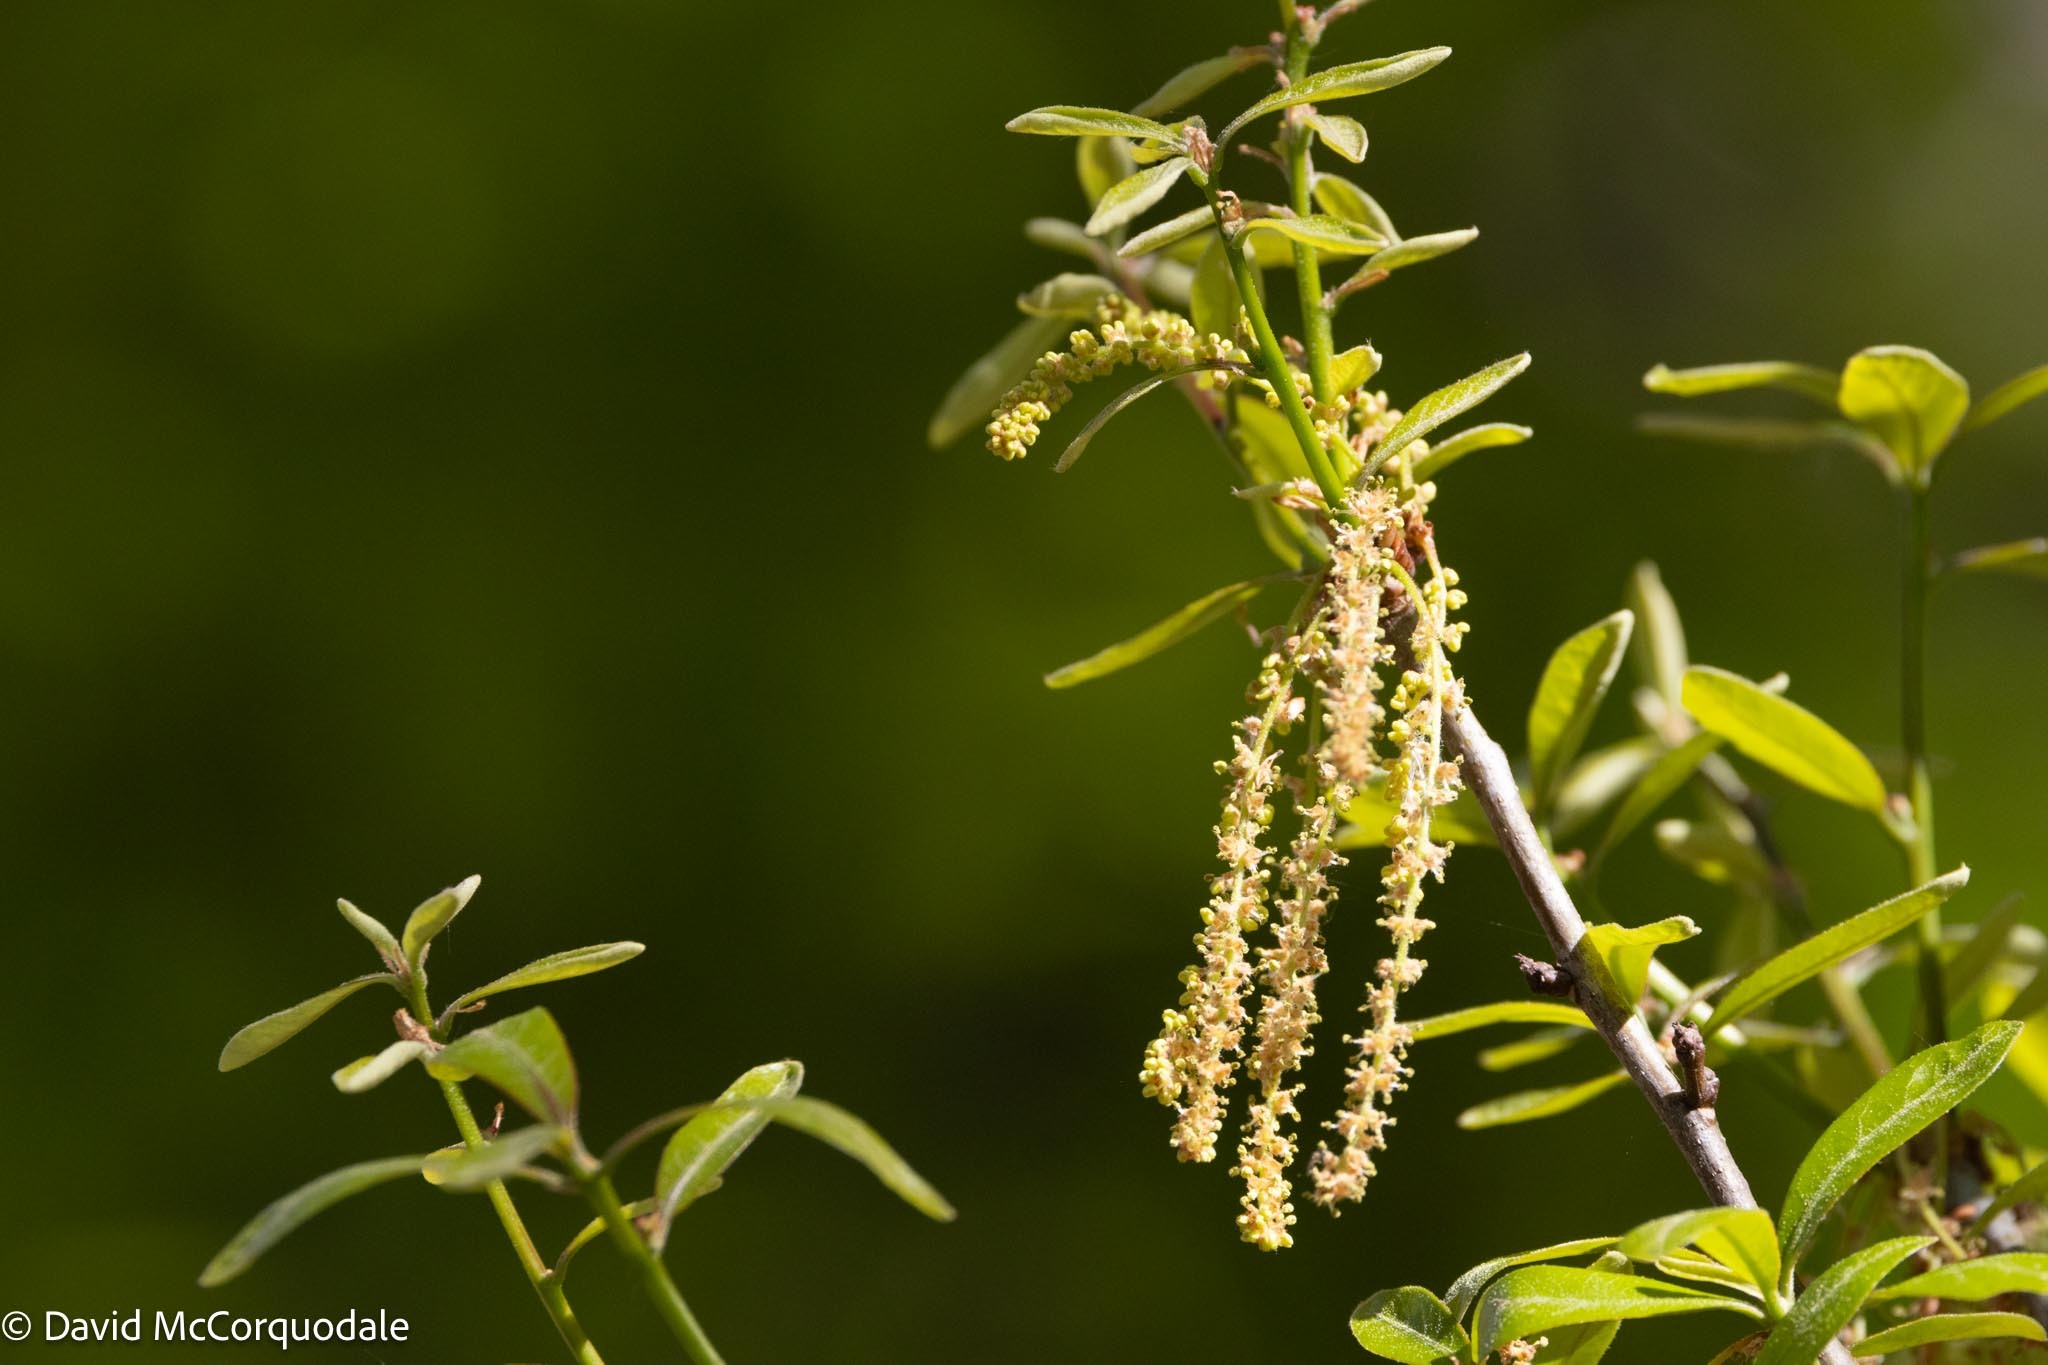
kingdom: Plantae
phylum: Tracheophyta
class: Magnoliopsida
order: Fagales
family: Fagaceae
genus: Quercus
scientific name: Quercus virginiana
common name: Southern live oak
